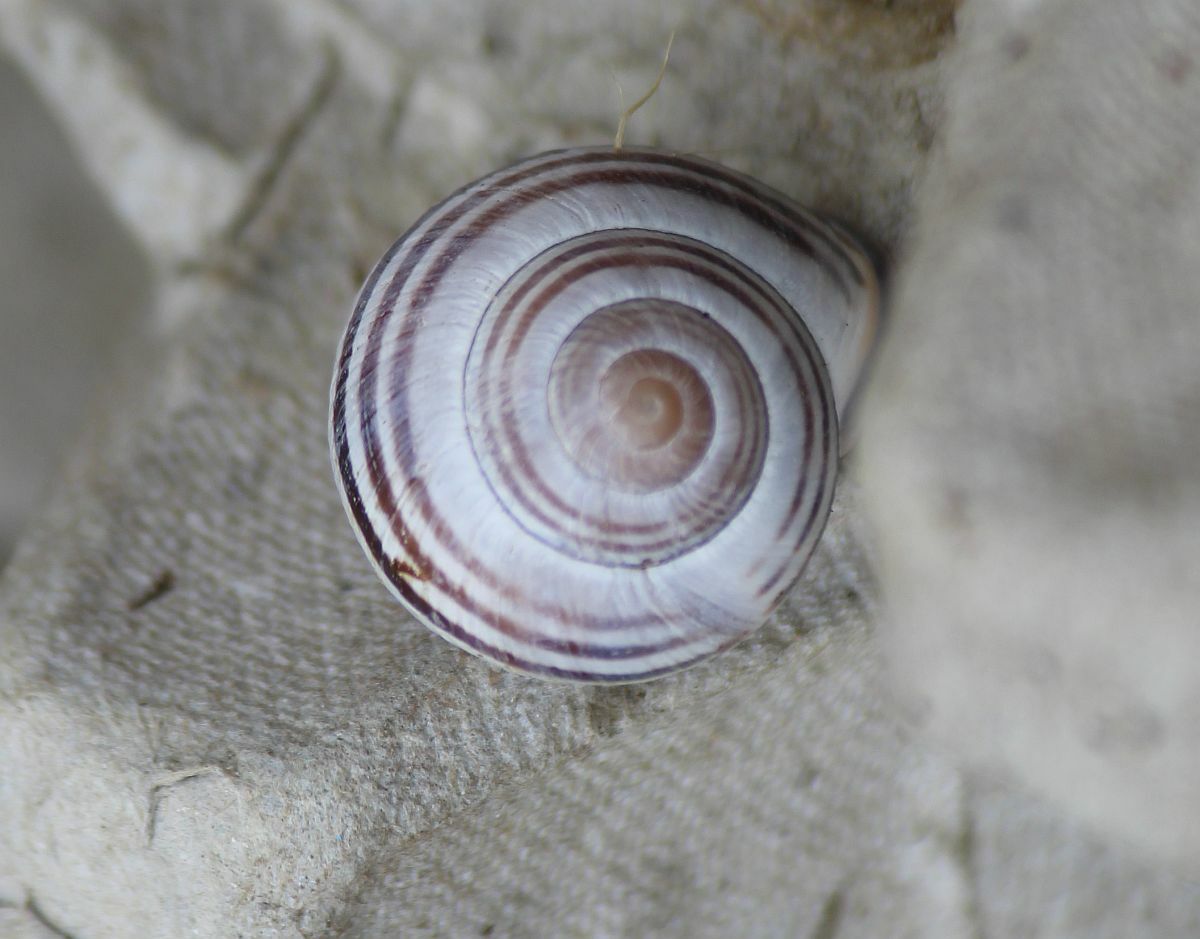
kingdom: Animalia
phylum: Mollusca
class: Gastropoda
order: Stylommatophora
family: Helicidae
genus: Cepaea
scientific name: Cepaea nemoralis
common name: Grovesnail
